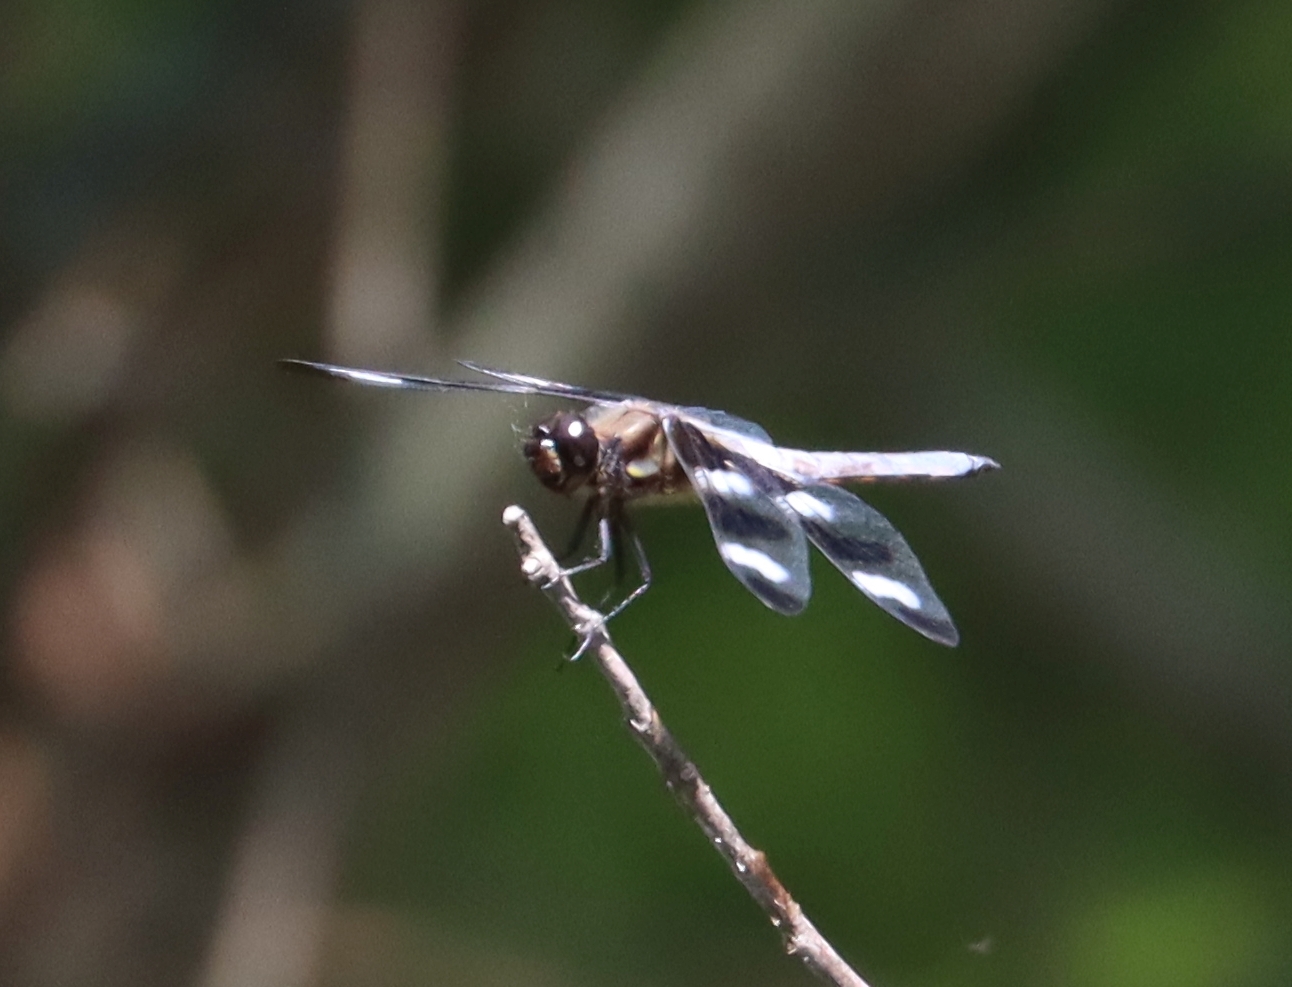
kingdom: Animalia
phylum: Arthropoda
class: Insecta
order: Odonata
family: Libellulidae
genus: Libellula
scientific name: Libellula pulchella
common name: Twelve-spotted skimmer
